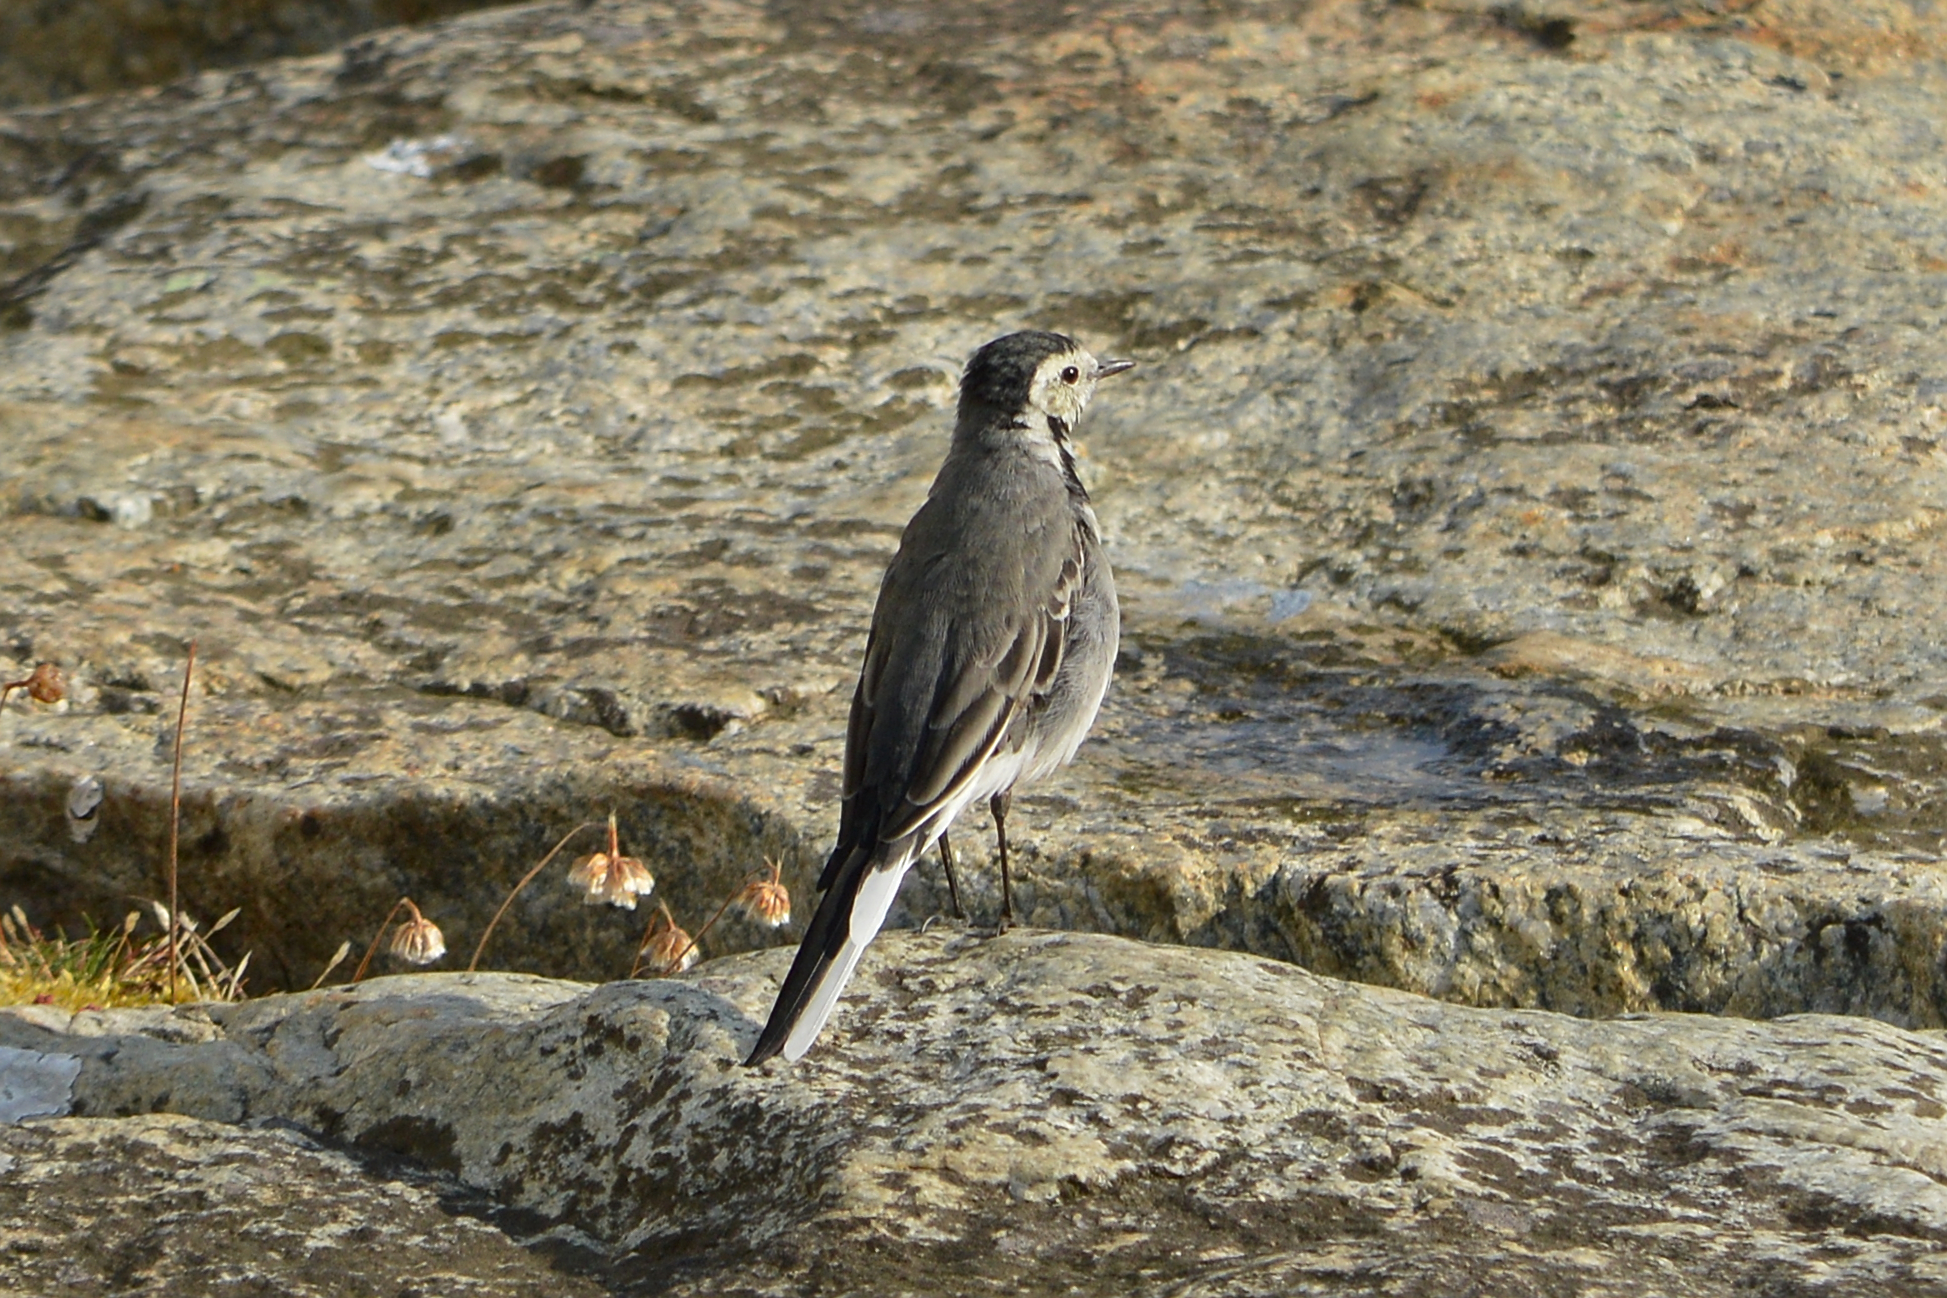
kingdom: Animalia
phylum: Chordata
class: Aves
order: Passeriformes
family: Motacillidae
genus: Motacilla
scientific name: Motacilla alba
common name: White wagtail
